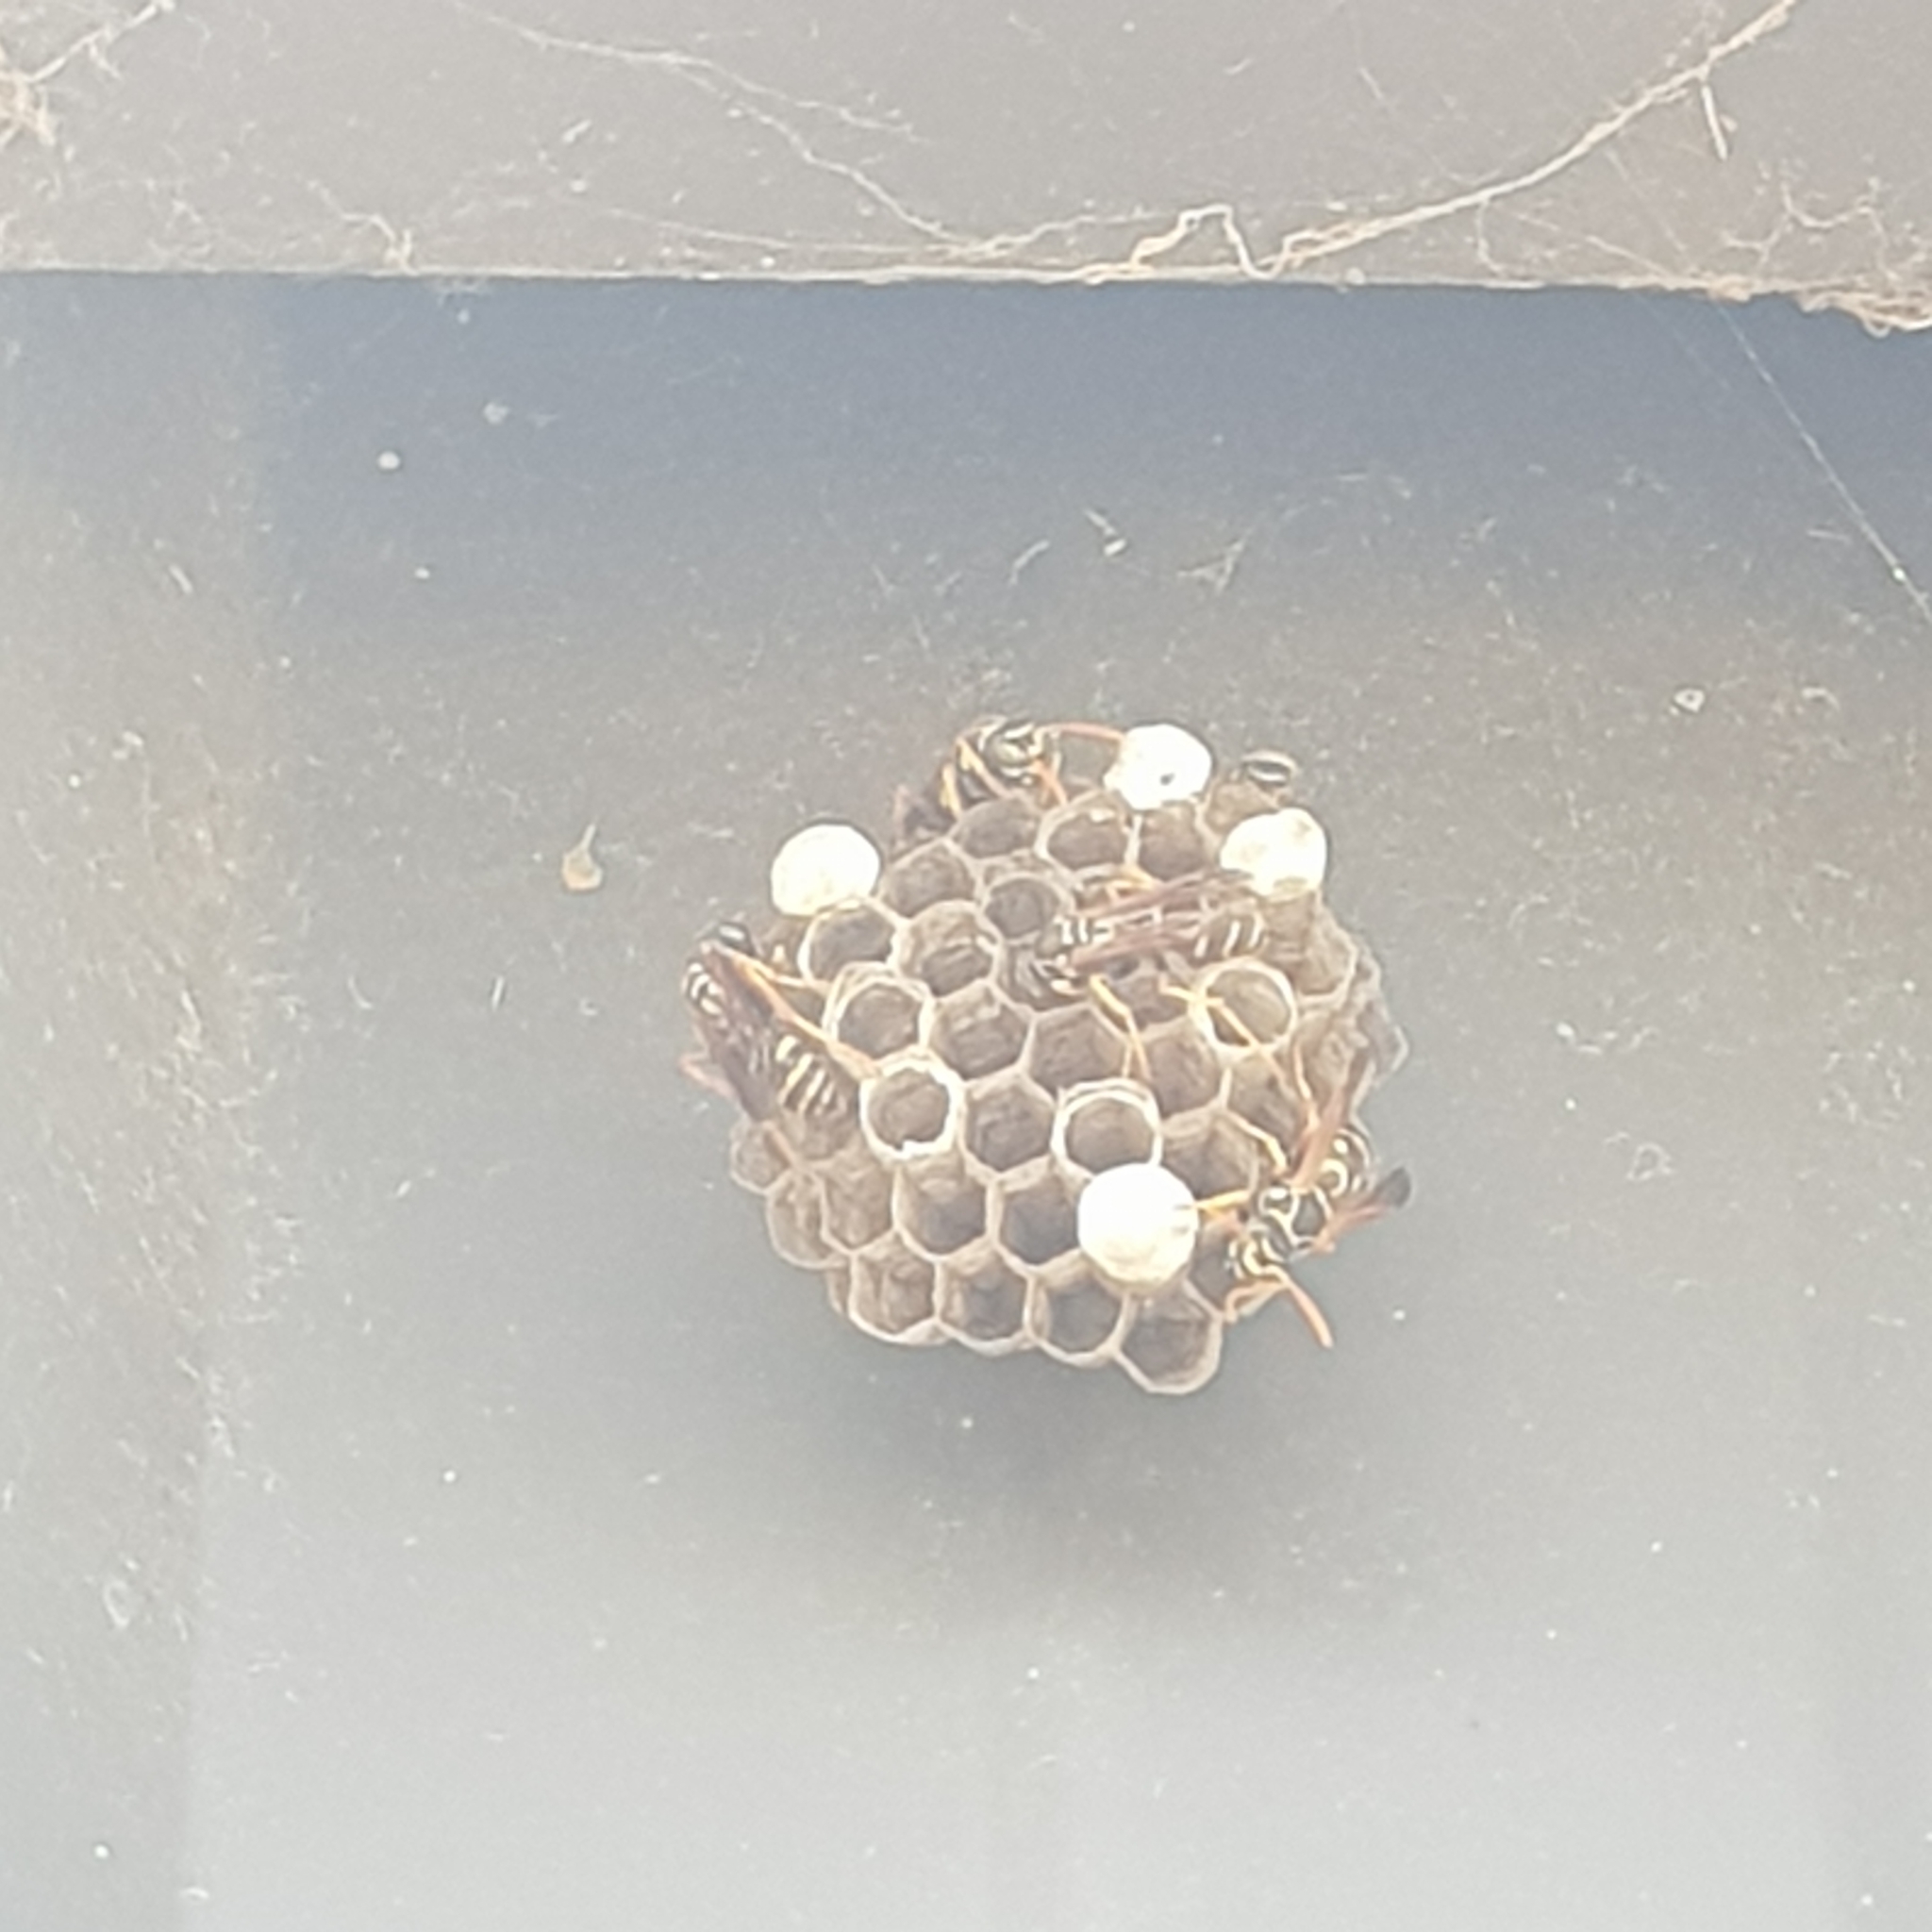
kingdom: Animalia
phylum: Arthropoda
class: Insecta
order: Hymenoptera
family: Eumenidae
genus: Polistes
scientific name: Polistes chinensis
